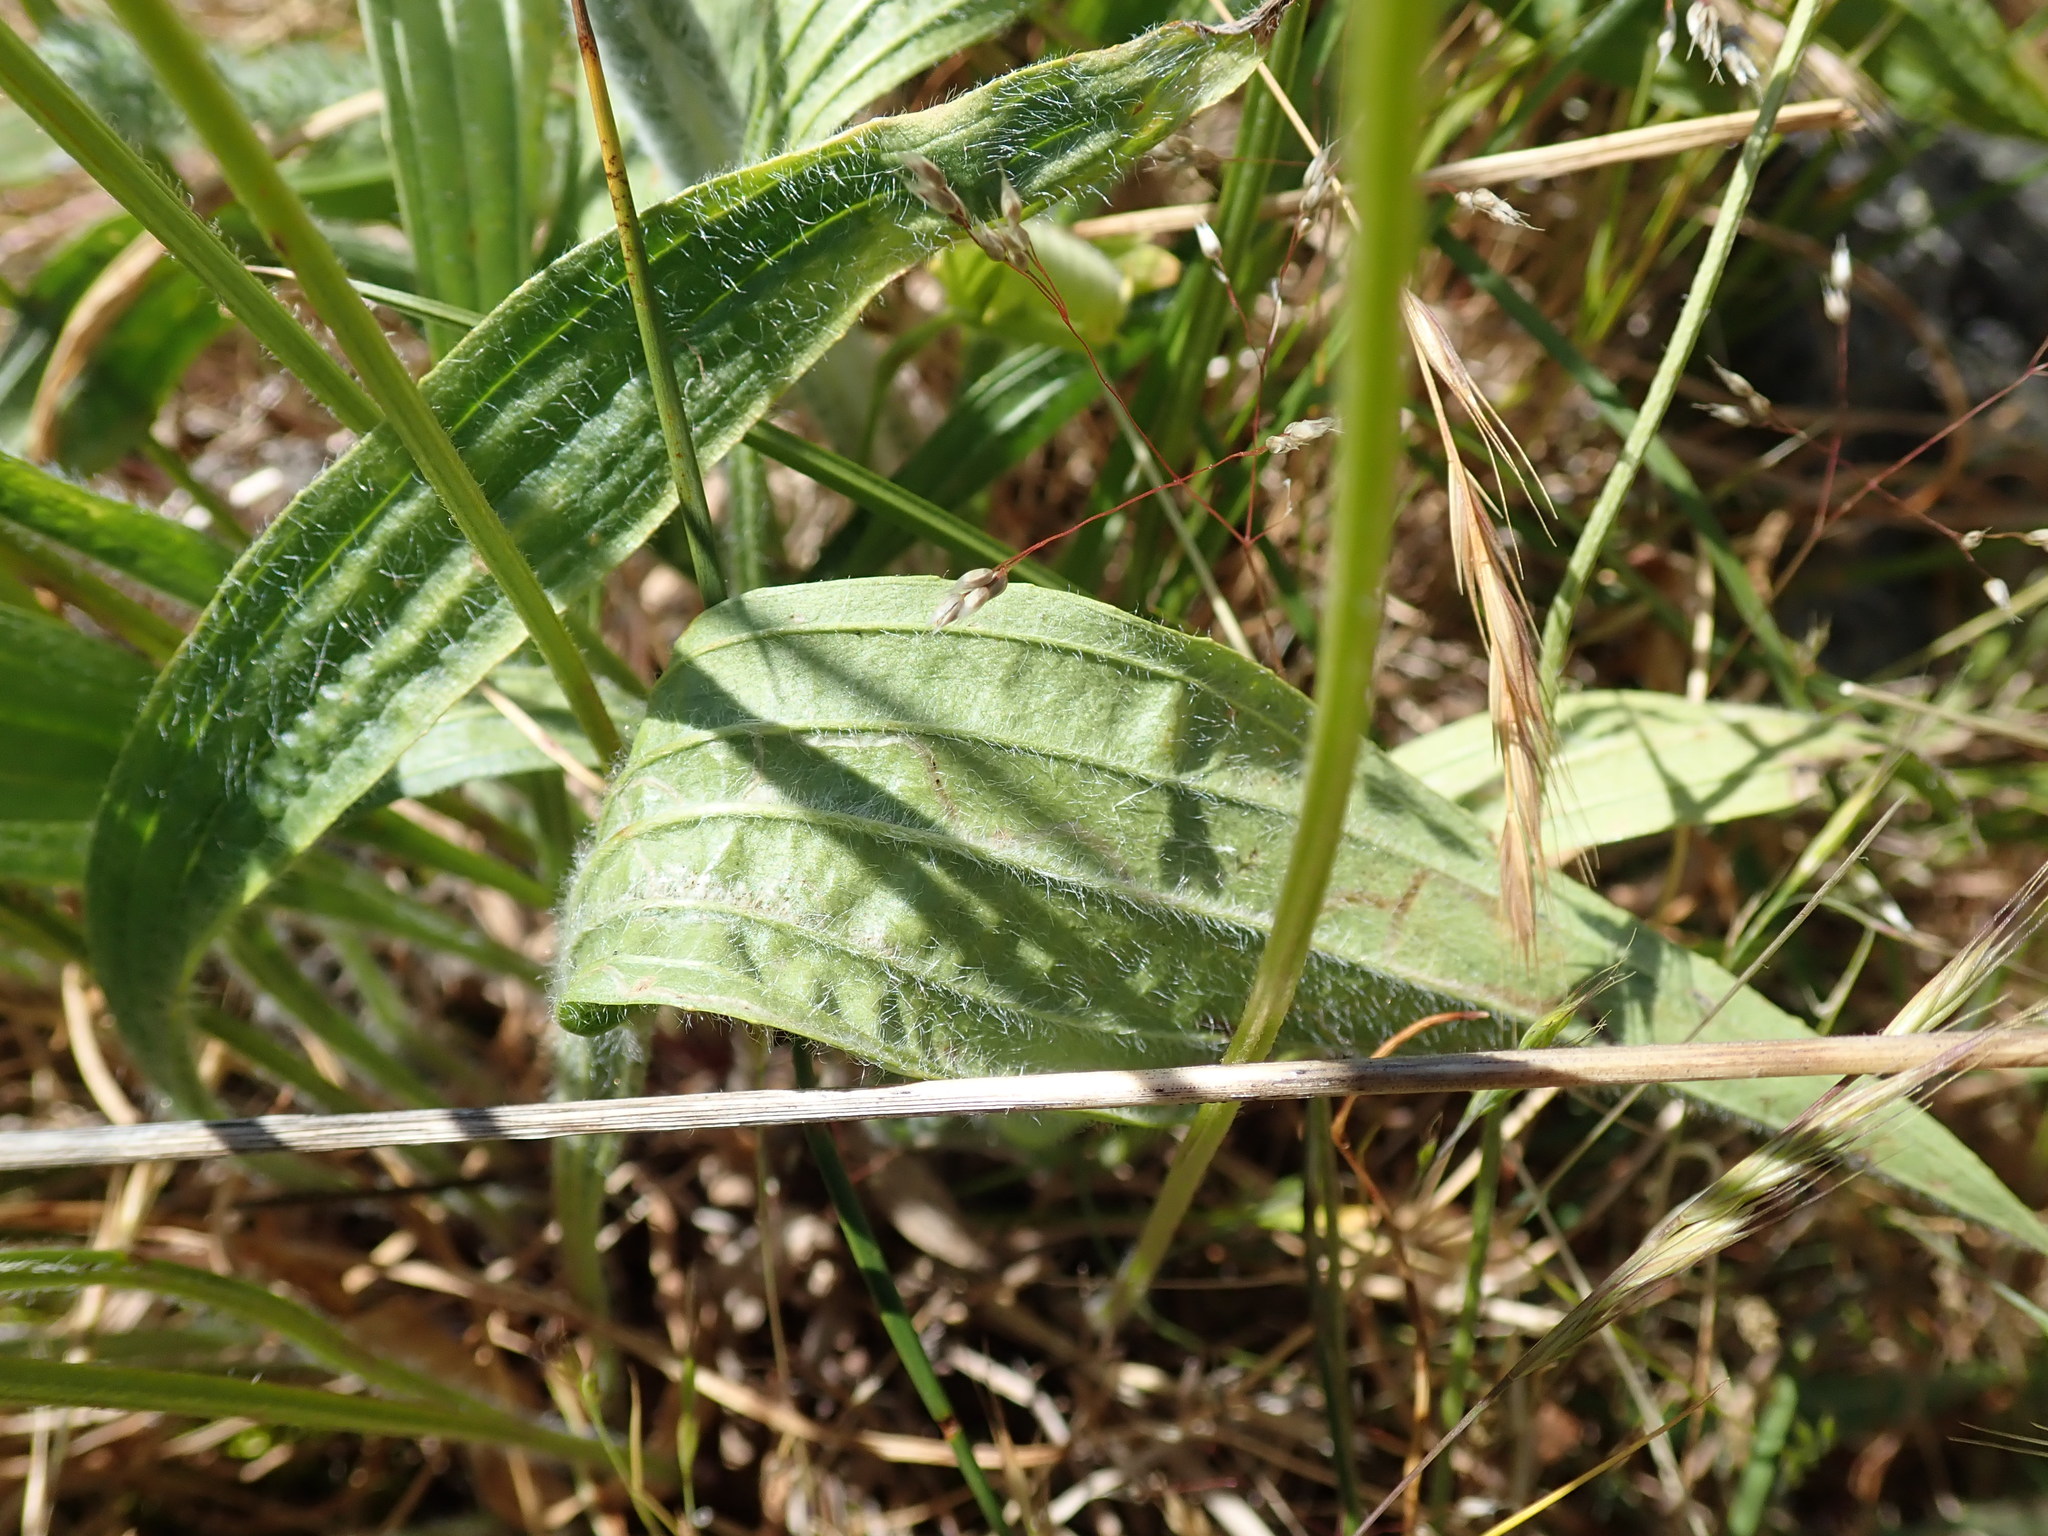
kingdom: Plantae
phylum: Tracheophyta
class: Magnoliopsida
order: Lamiales
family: Plantaginaceae
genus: Plantago
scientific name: Plantago lanceolata
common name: Ribwort plantain
